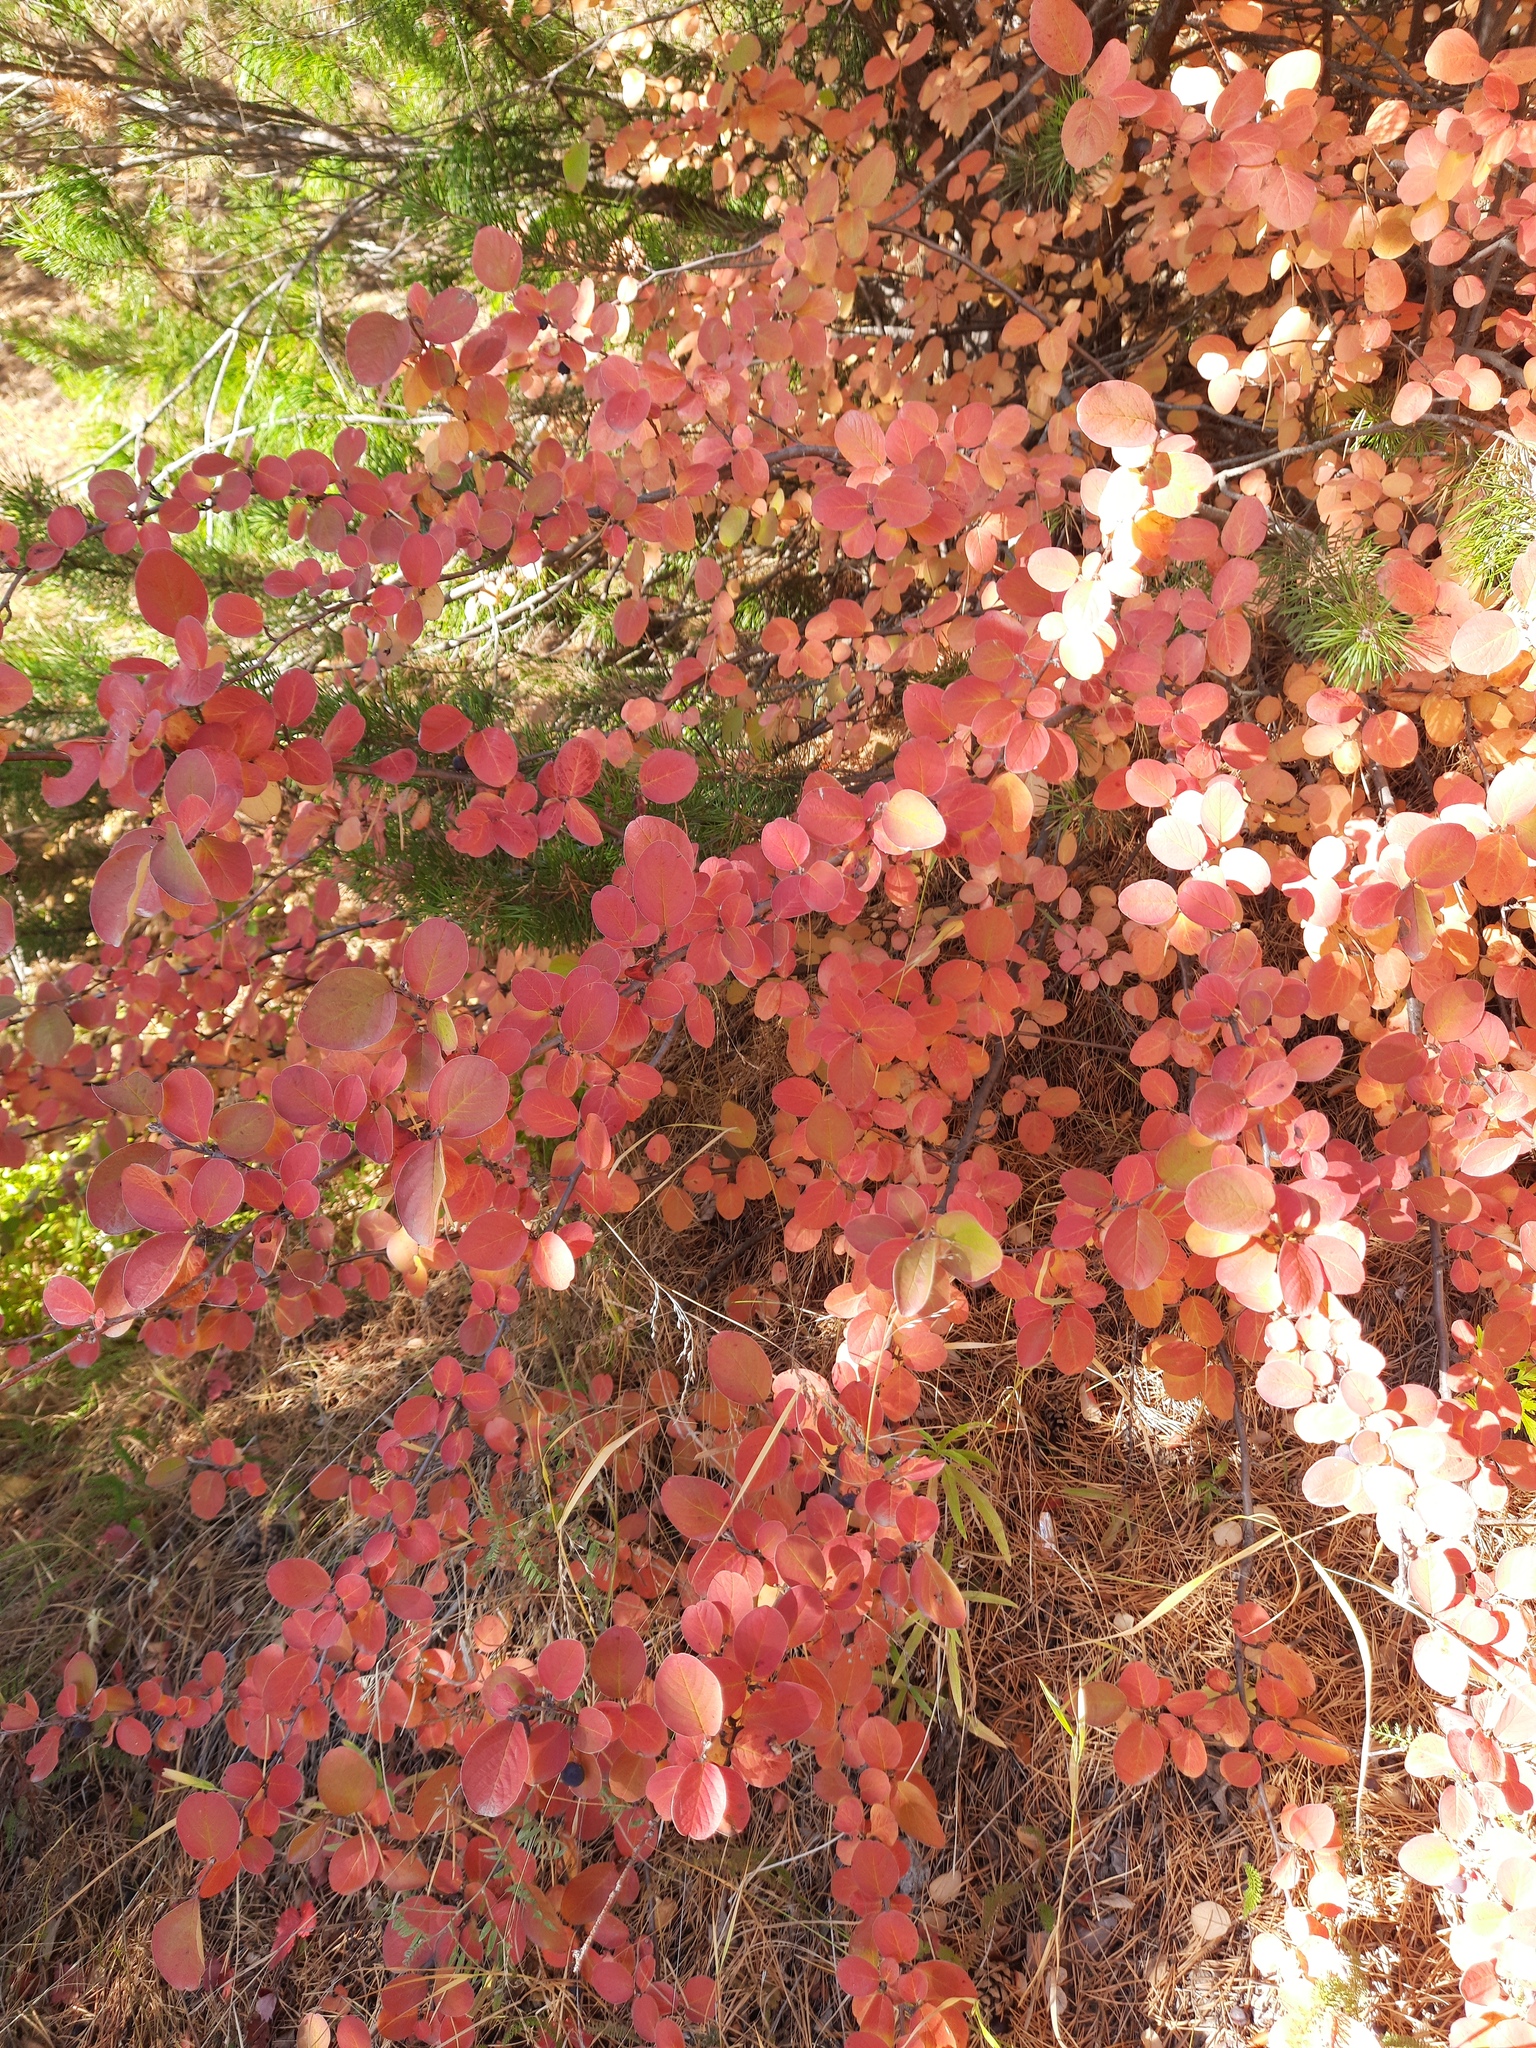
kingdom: Plantae
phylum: Tracheophyta
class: Magnoliopsida
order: Rosales
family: Rosaceae
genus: Cotoneaster
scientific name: Cotoneaster melanocarpus
